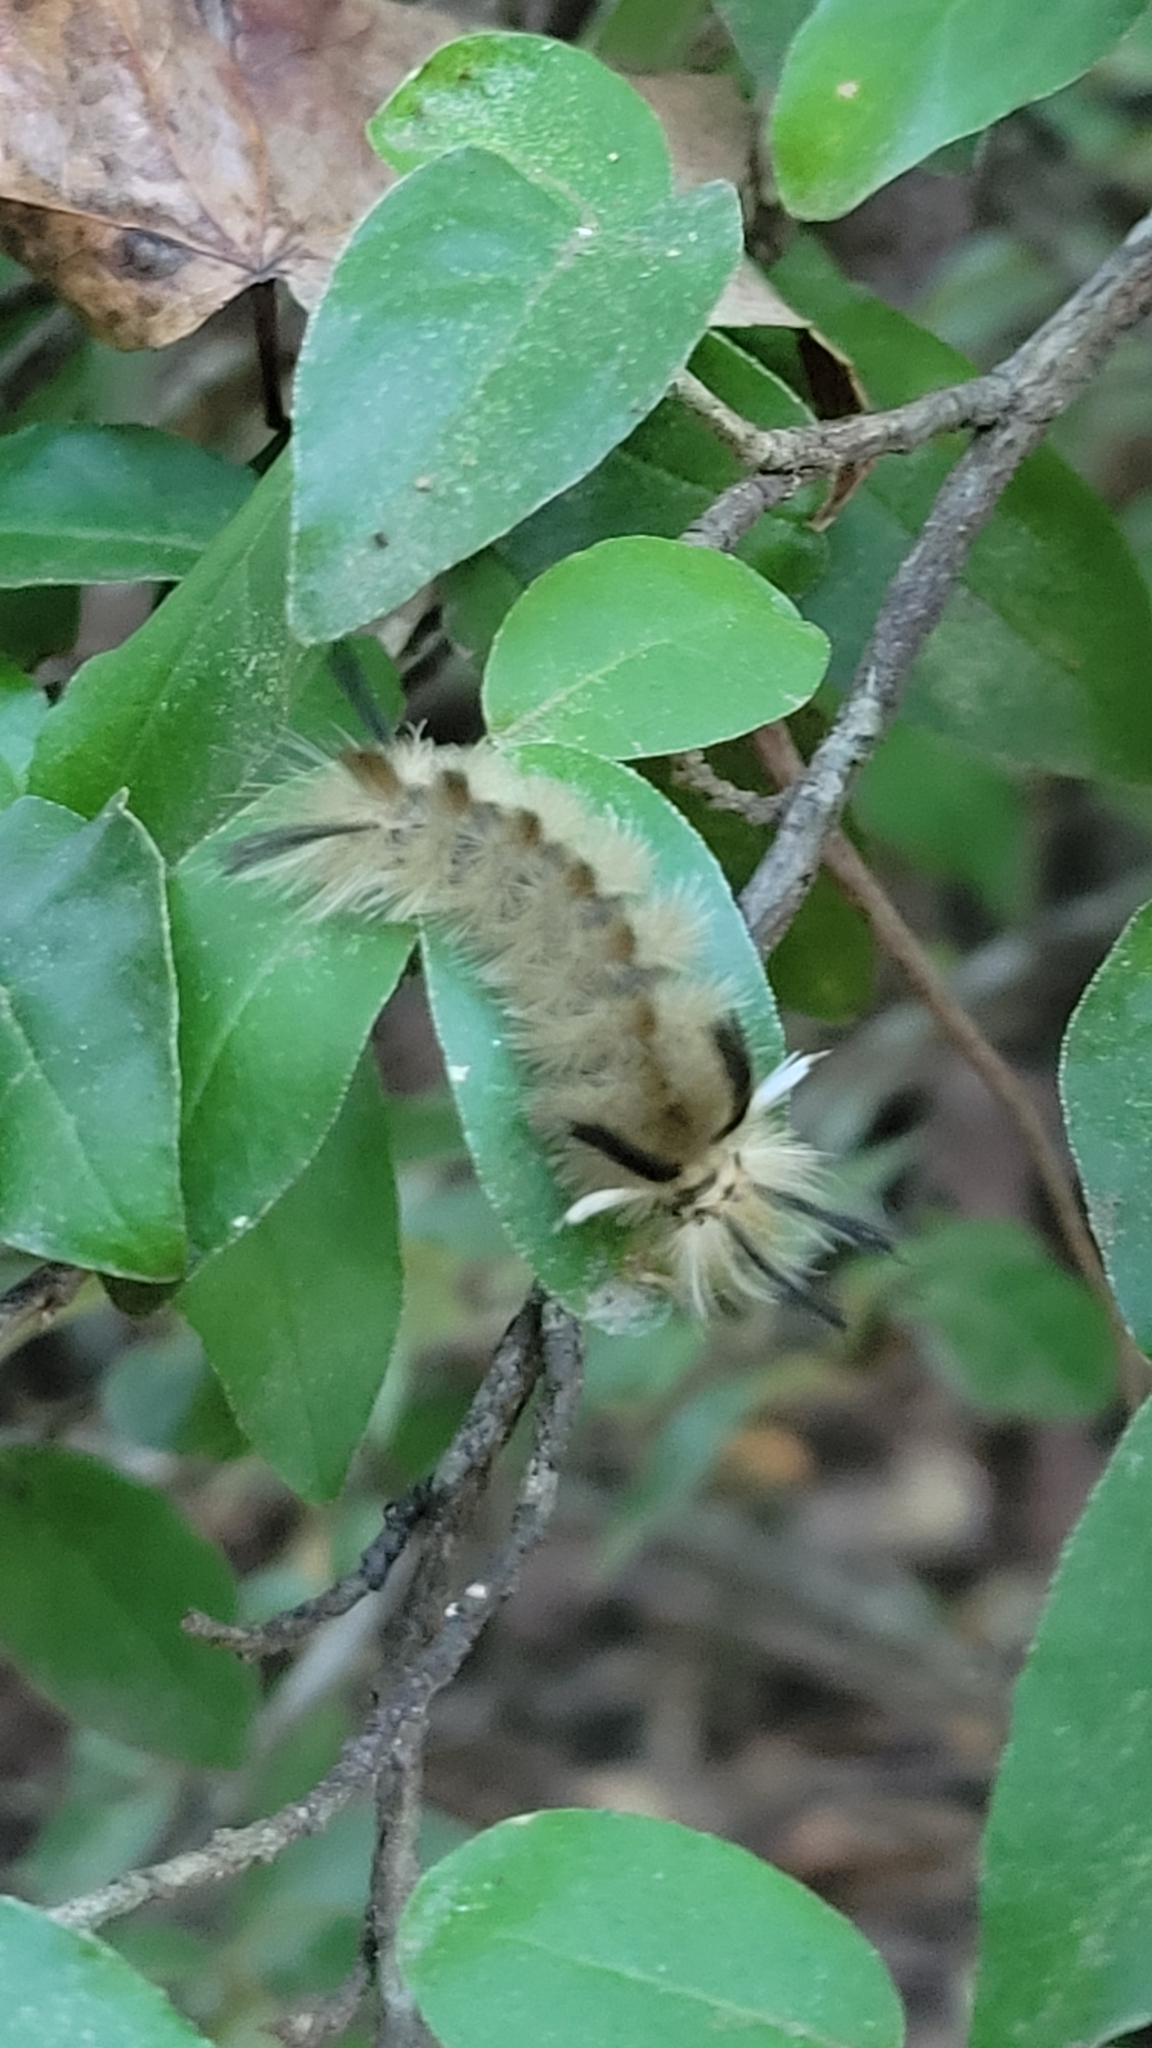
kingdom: Animalia
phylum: Arthropoda
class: Insecta
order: Lepidoptera
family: Erebidae
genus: Halysidota
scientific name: Halysidota tessellaris
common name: Banded tussock moth
